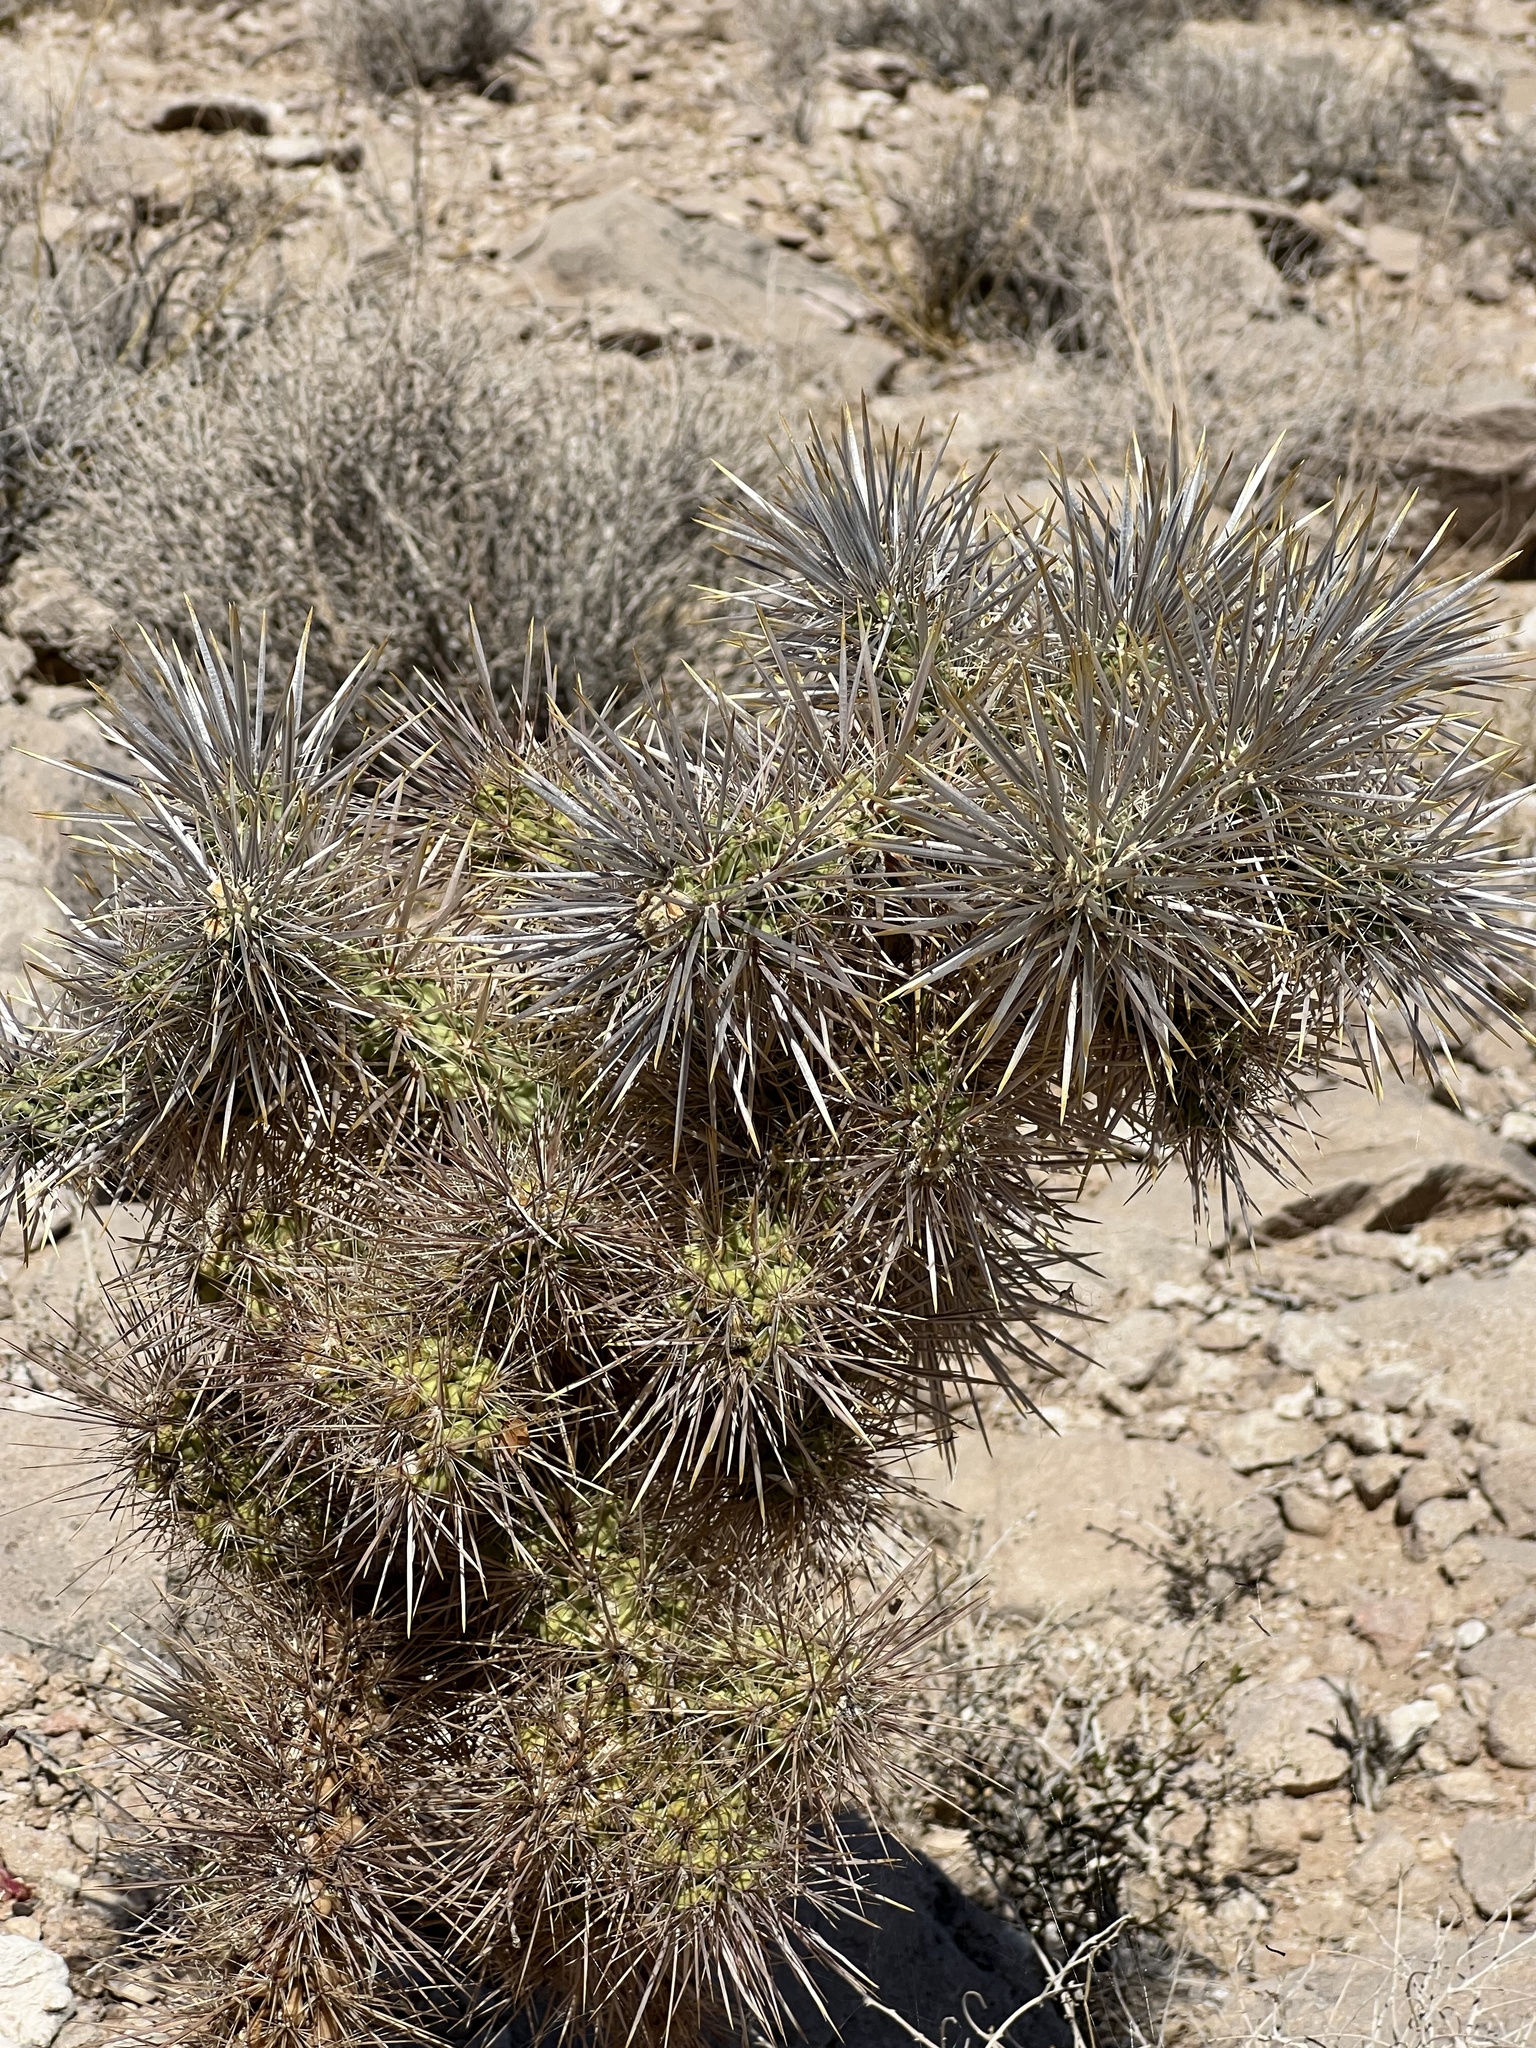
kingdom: Plantae
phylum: Tracheophyta
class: Magnoliopsida
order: Caryophyllales
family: Cactaceae
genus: Cylindropuntia
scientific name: Cylindropuntia echinocarpa
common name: Ground cholla
